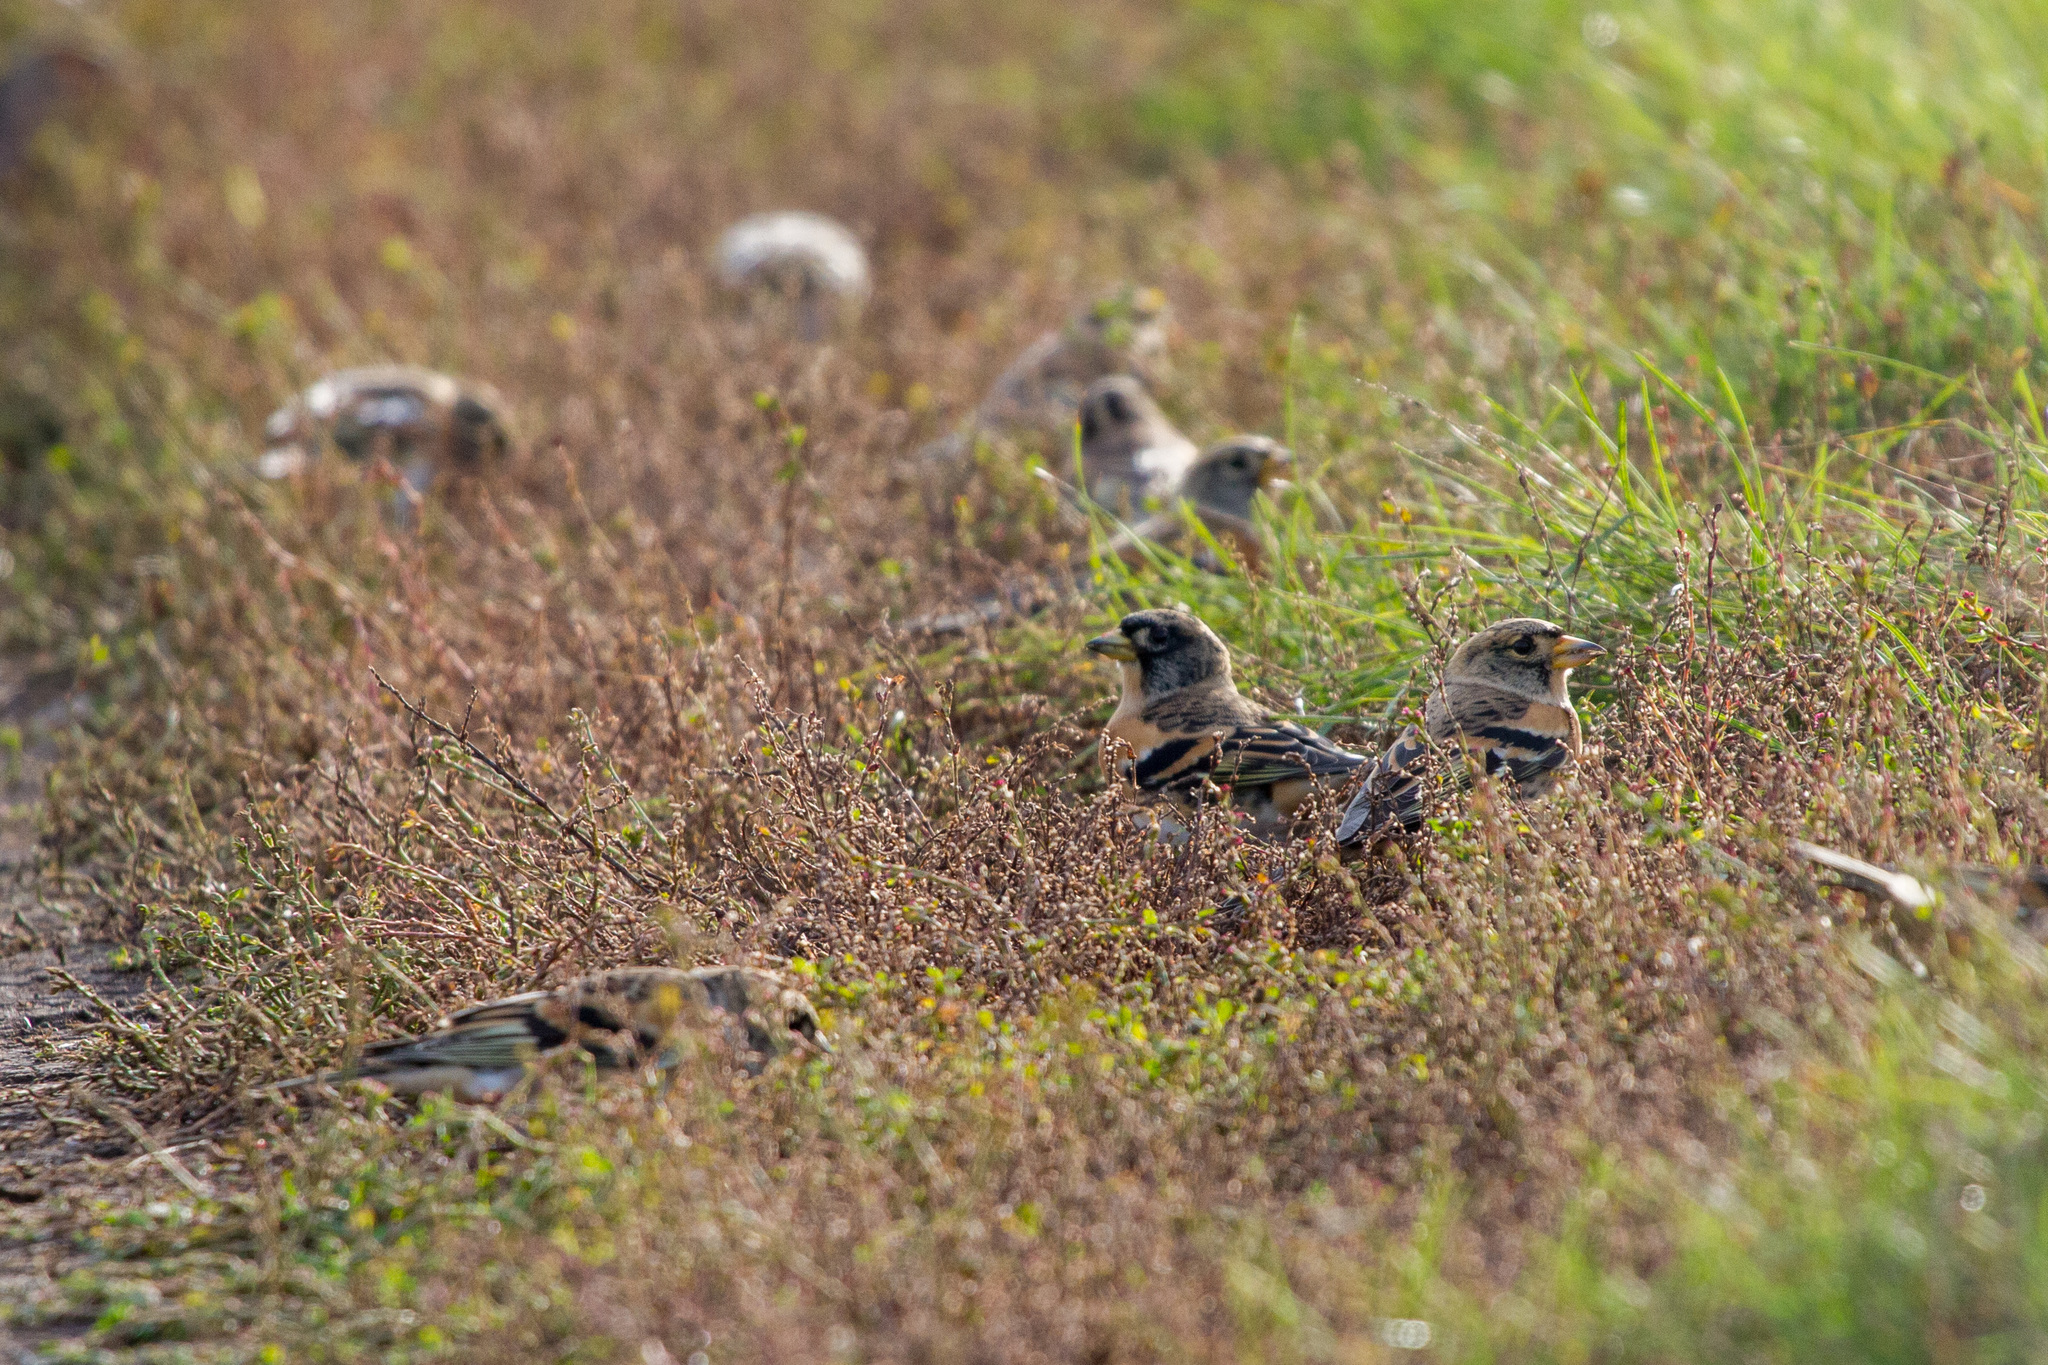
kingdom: Animalia
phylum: Chordata
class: Aves
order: Passeriformes
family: Fringillidae
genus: Fringilla
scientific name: Fringilla montifringilla
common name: Brambling
